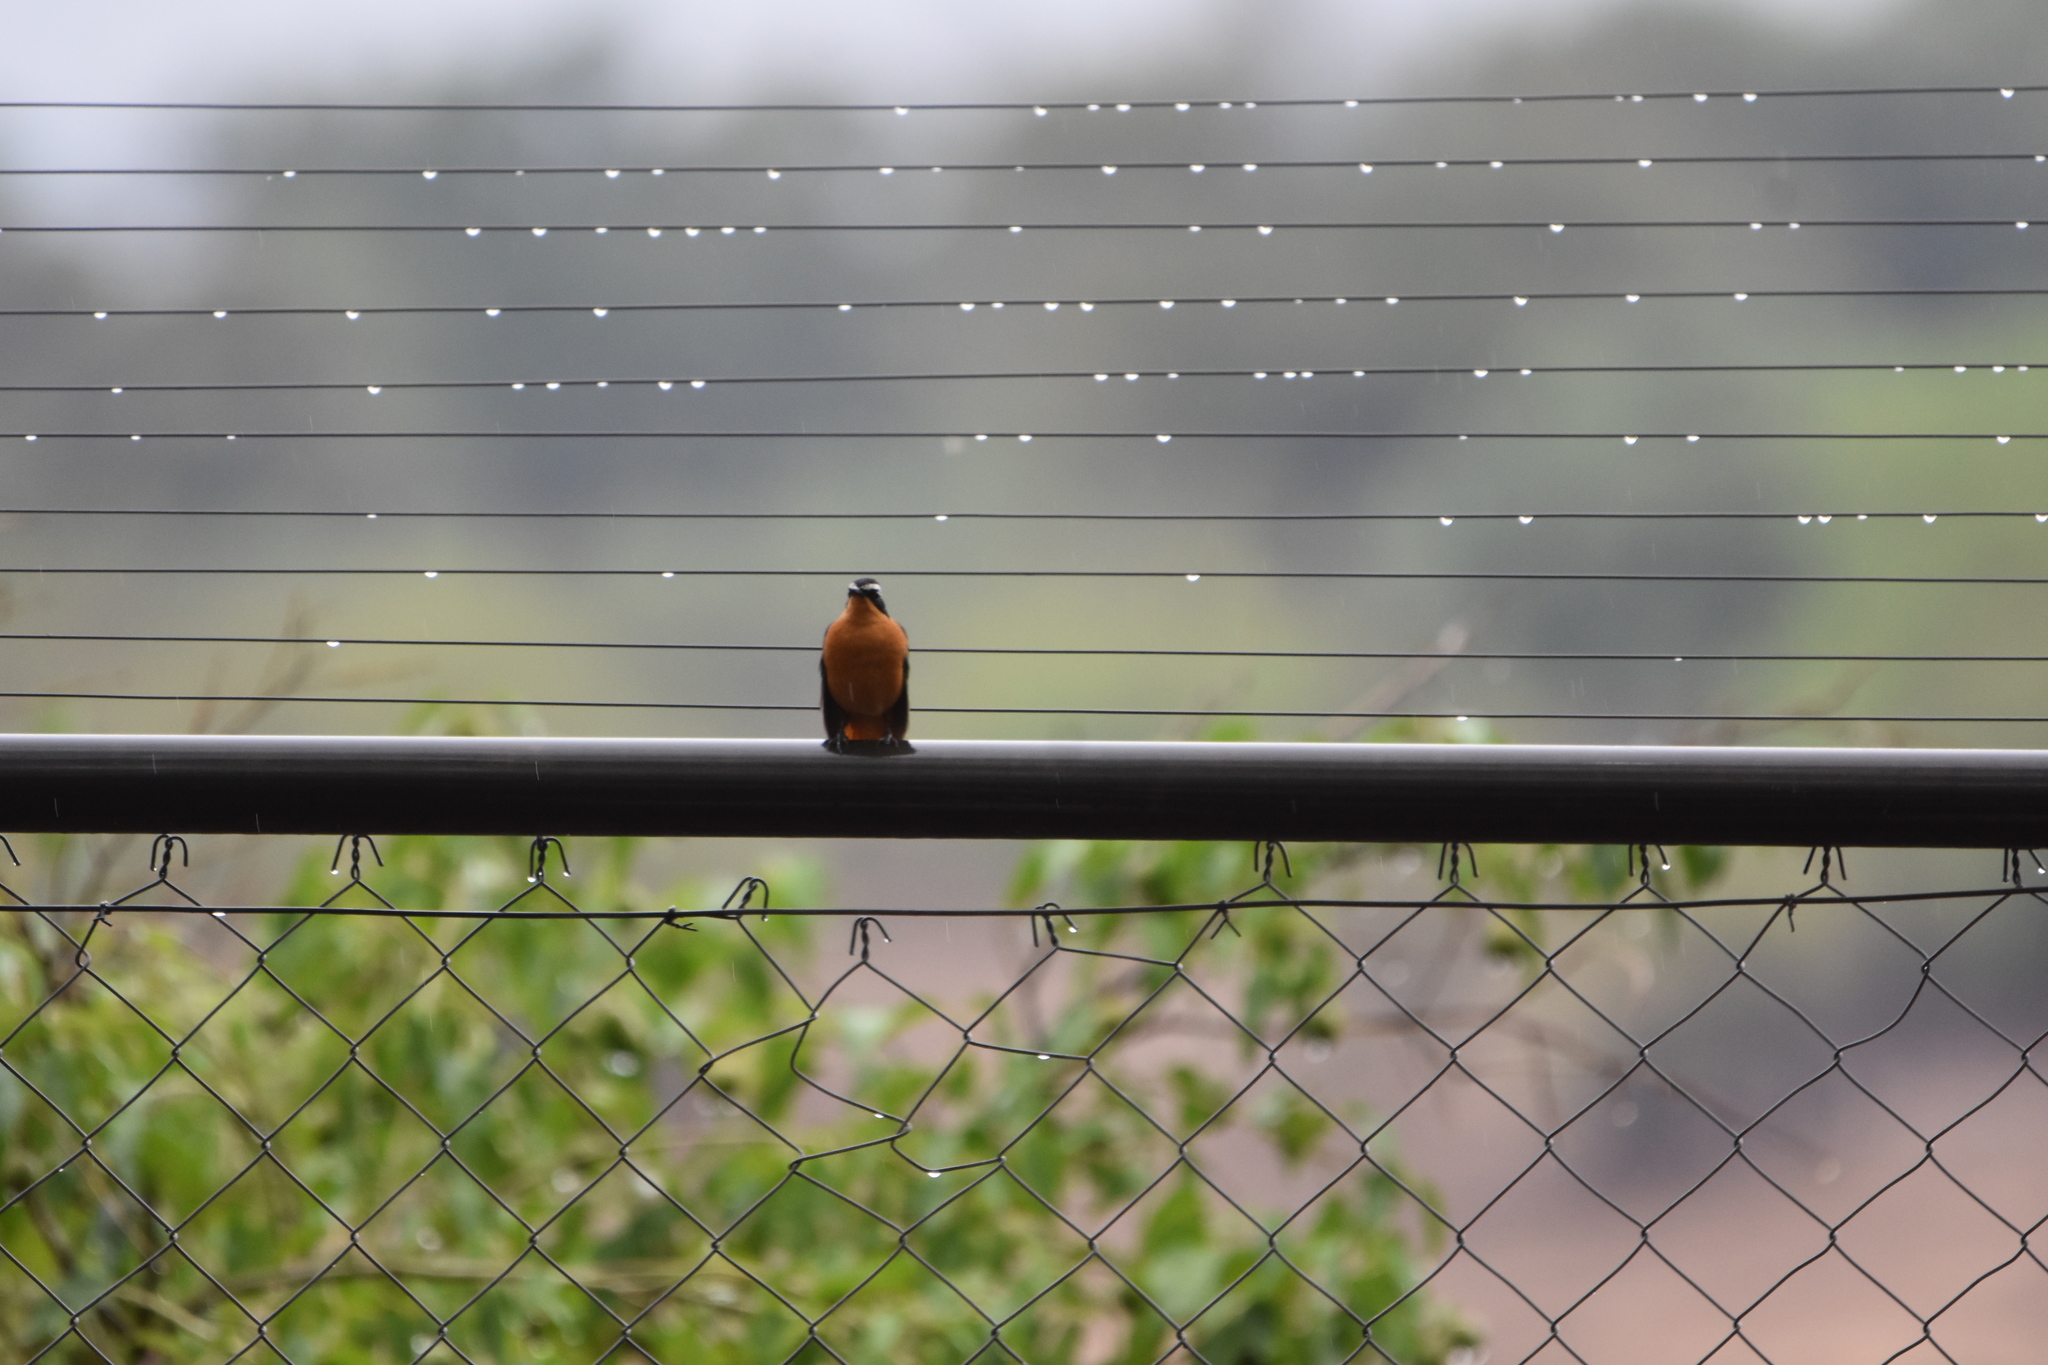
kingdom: Animalia
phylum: Chordata
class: Aves
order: Passeriformes
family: Muscicapidae
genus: Cossypha
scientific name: Cossypha heuglini
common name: White-browed robin-chat
